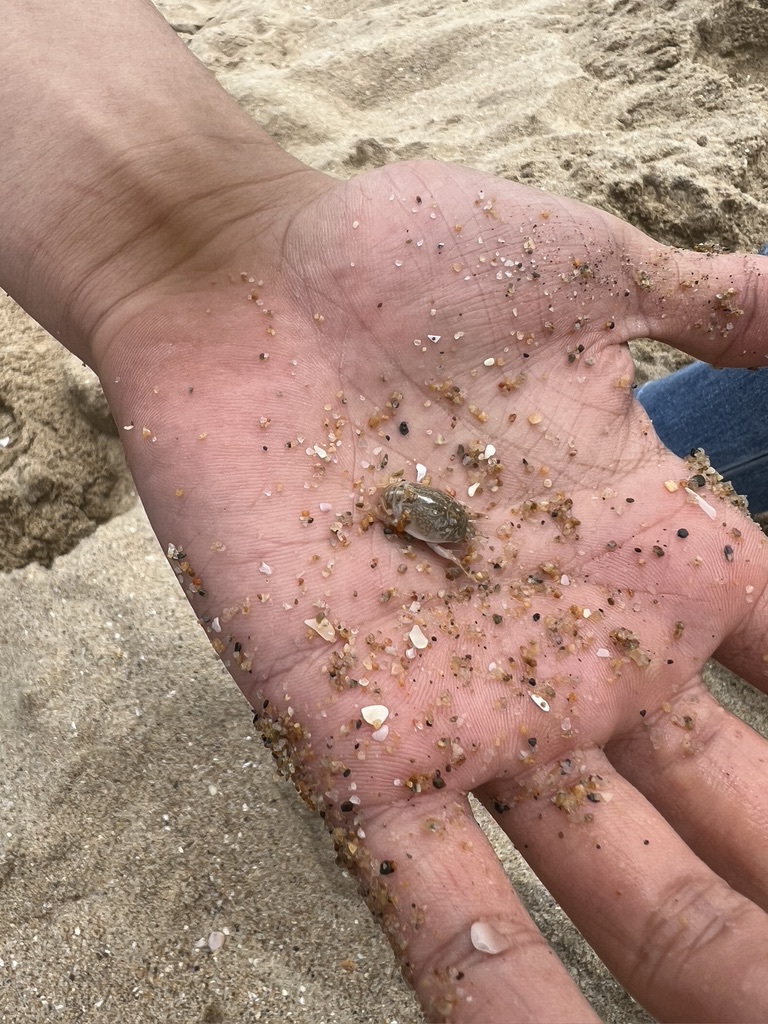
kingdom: Animalia
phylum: Arthropoda
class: Malacostraca
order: Decapoda
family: Hippidae
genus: Emerita
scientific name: Emerita analoga
